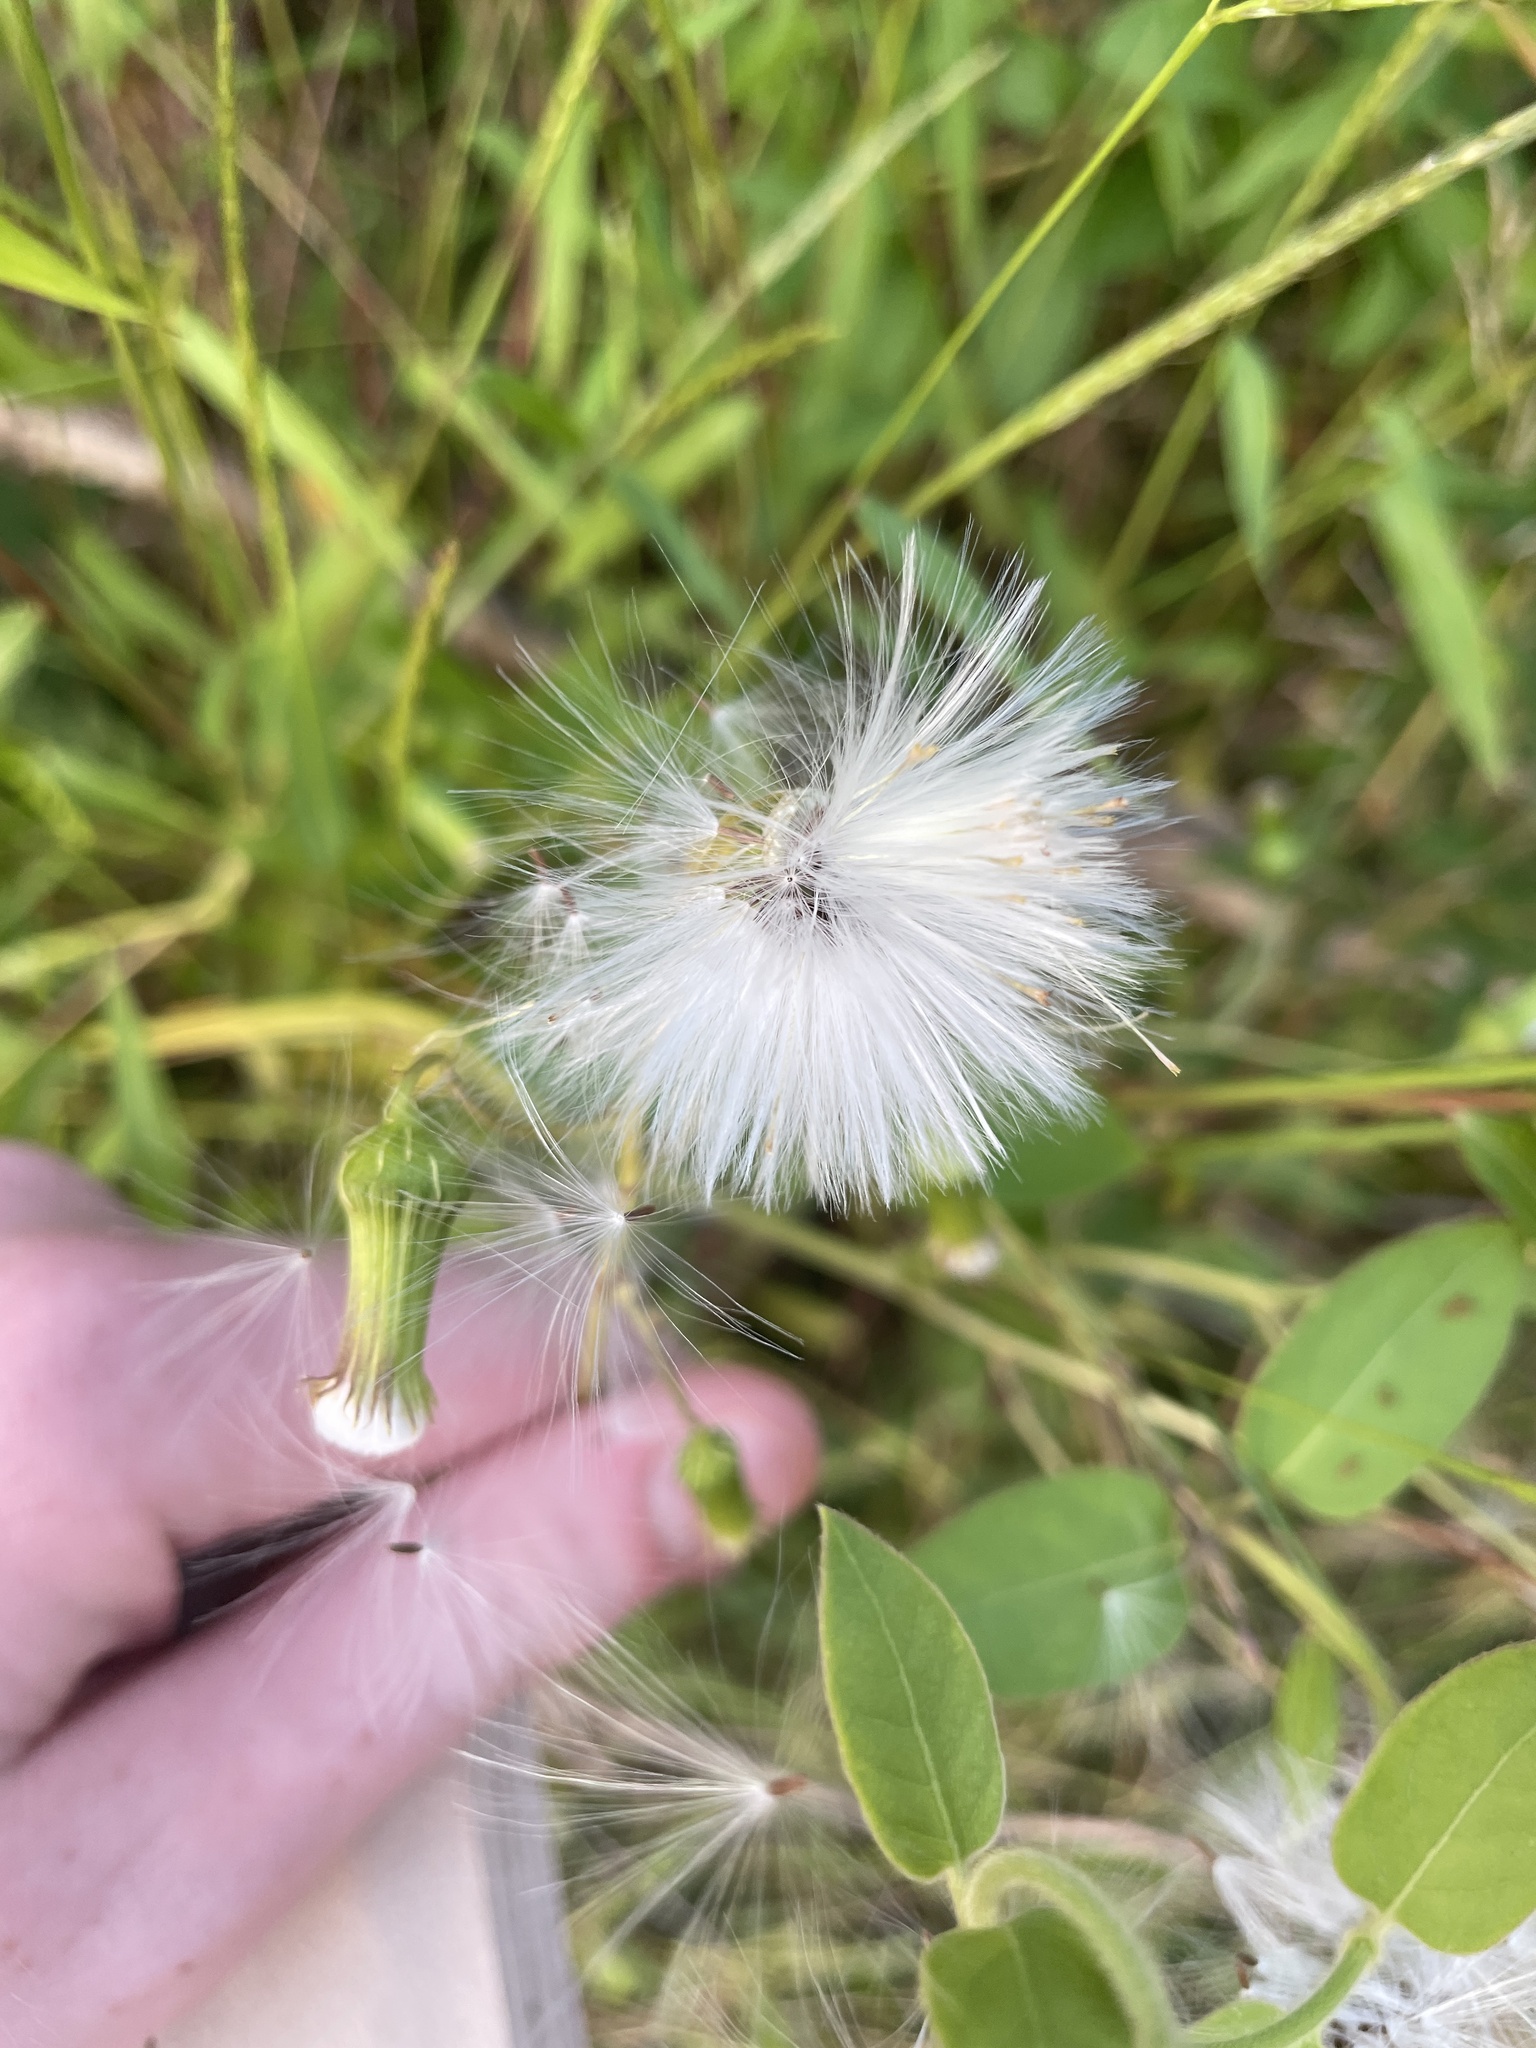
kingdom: Plantae
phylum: Tracheophyta
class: Magnoliopsida
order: Asterales
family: Asteraceae
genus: Erechtites
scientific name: Erechtites hieraciifolius
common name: American burnweed
